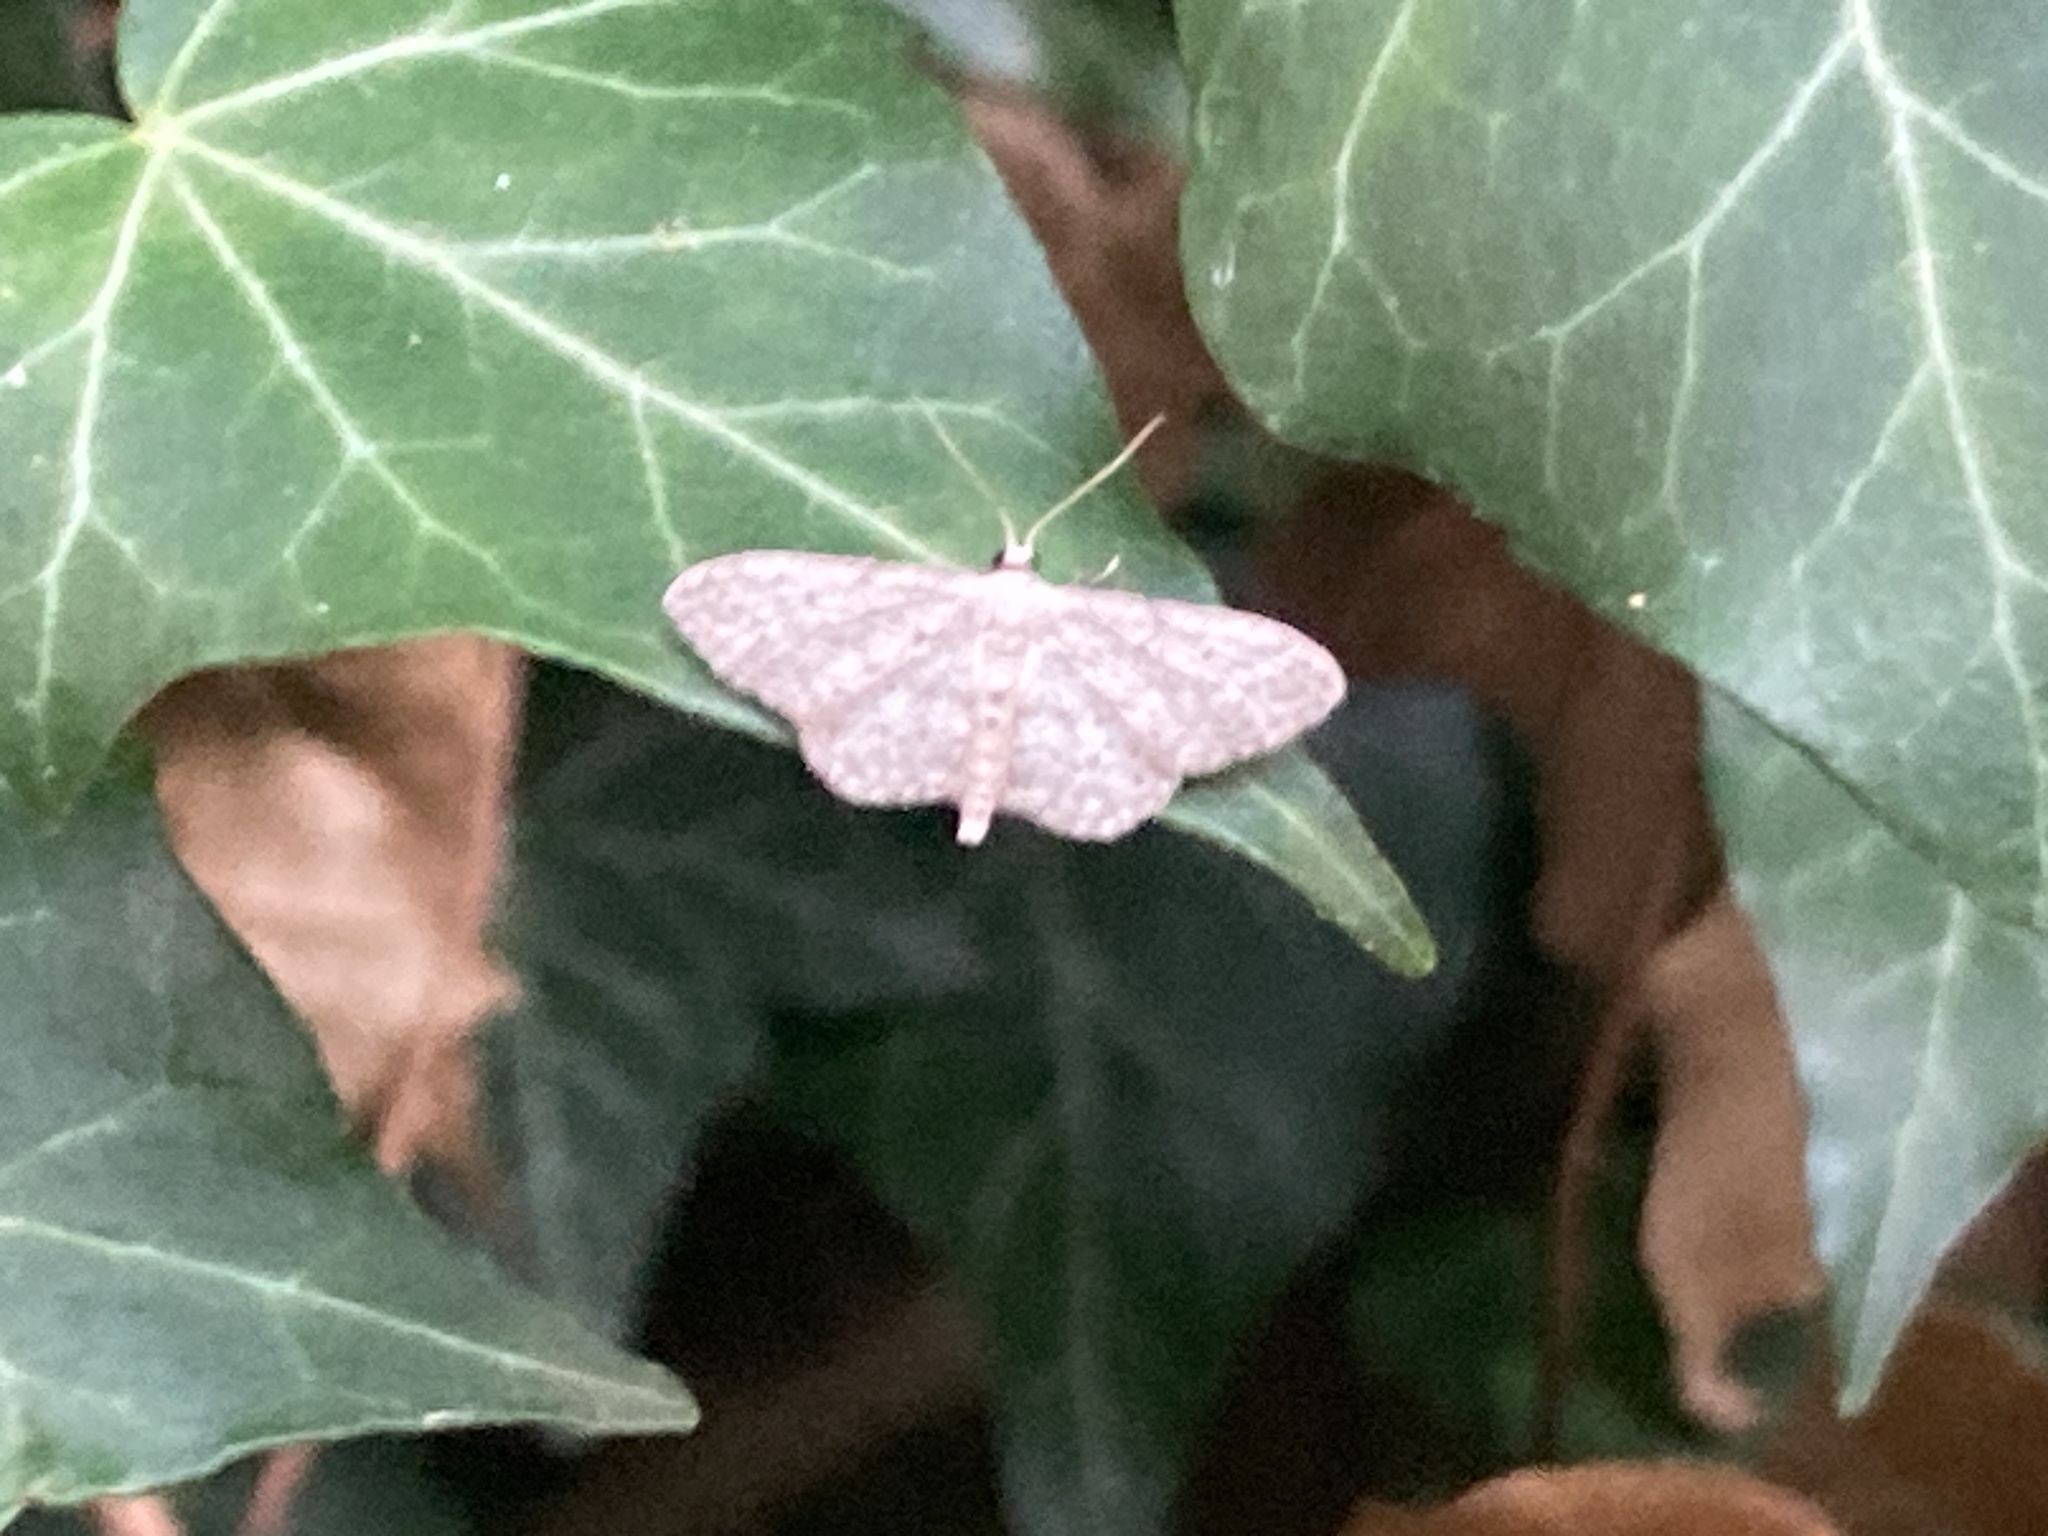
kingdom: Animalia
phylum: Arthropoda
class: Insecta
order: Lepidoptera
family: Geometridae
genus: Idaea
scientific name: Idaea seriata
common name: Small dusty wave
